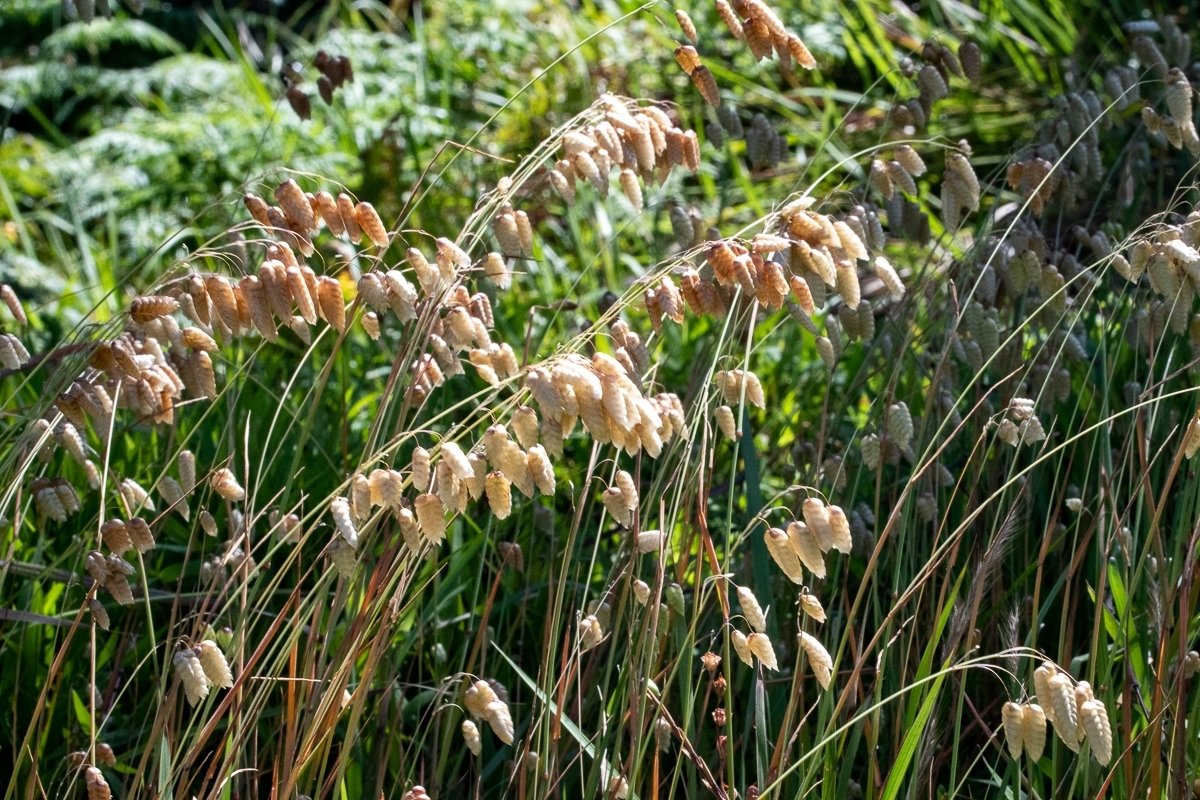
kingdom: Plantae
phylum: Tracheophyta
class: Liliopsida
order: Poales
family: Poaceae
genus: Briza
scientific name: Briza maxima
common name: Big quakinggrass
